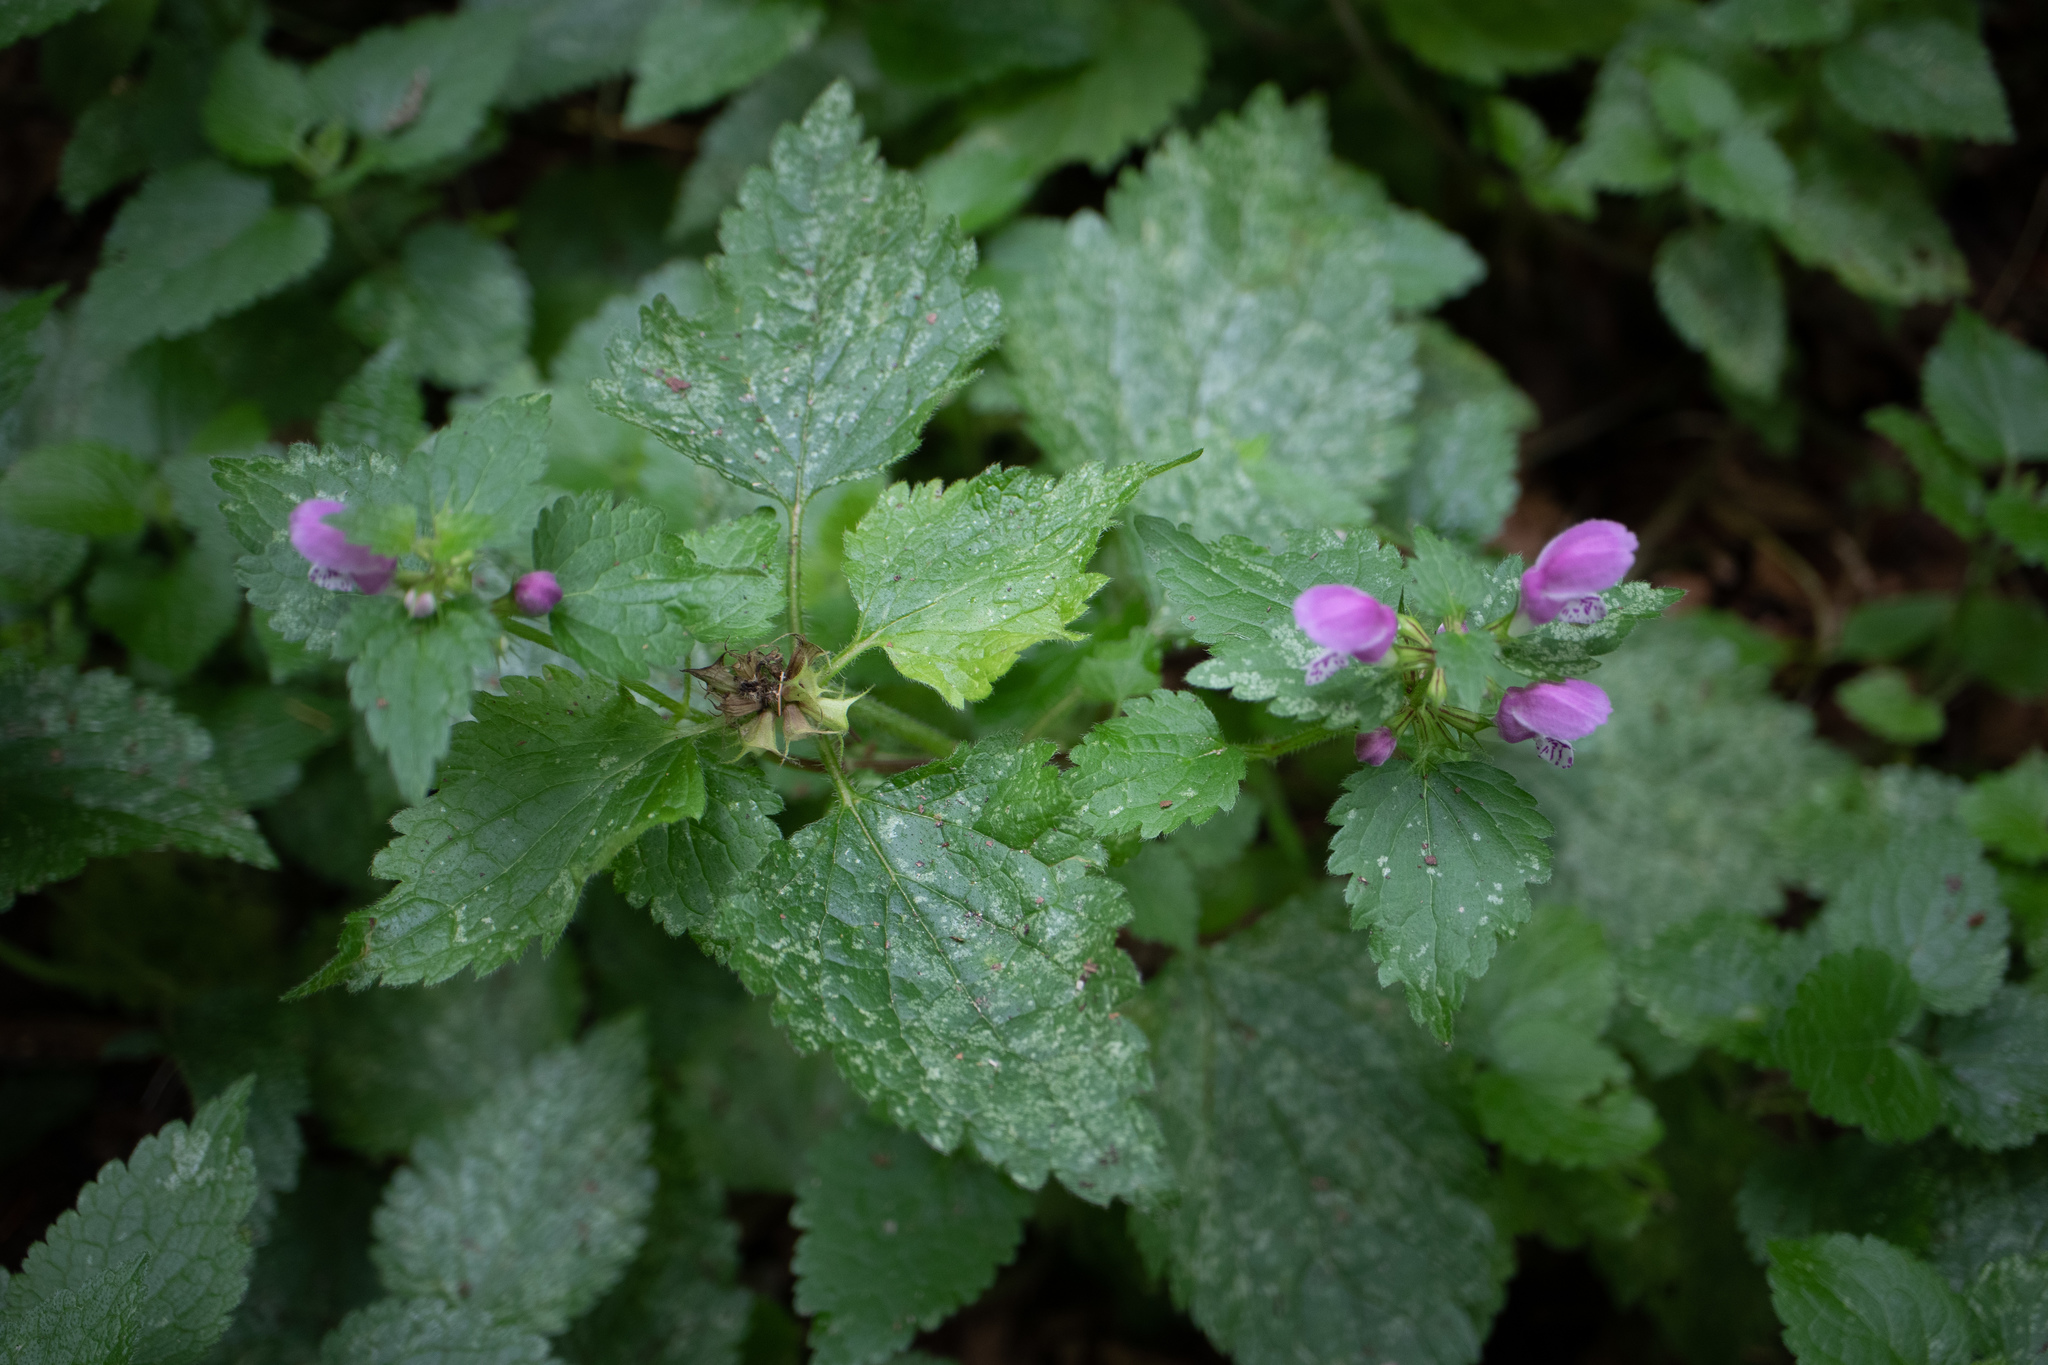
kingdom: Plantae
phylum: Tracheophyta
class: Magnoliopsida
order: Lamiales
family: Lamiaceae
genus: Lamium
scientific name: Lamium maculatum
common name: Spotted dead-nettle
